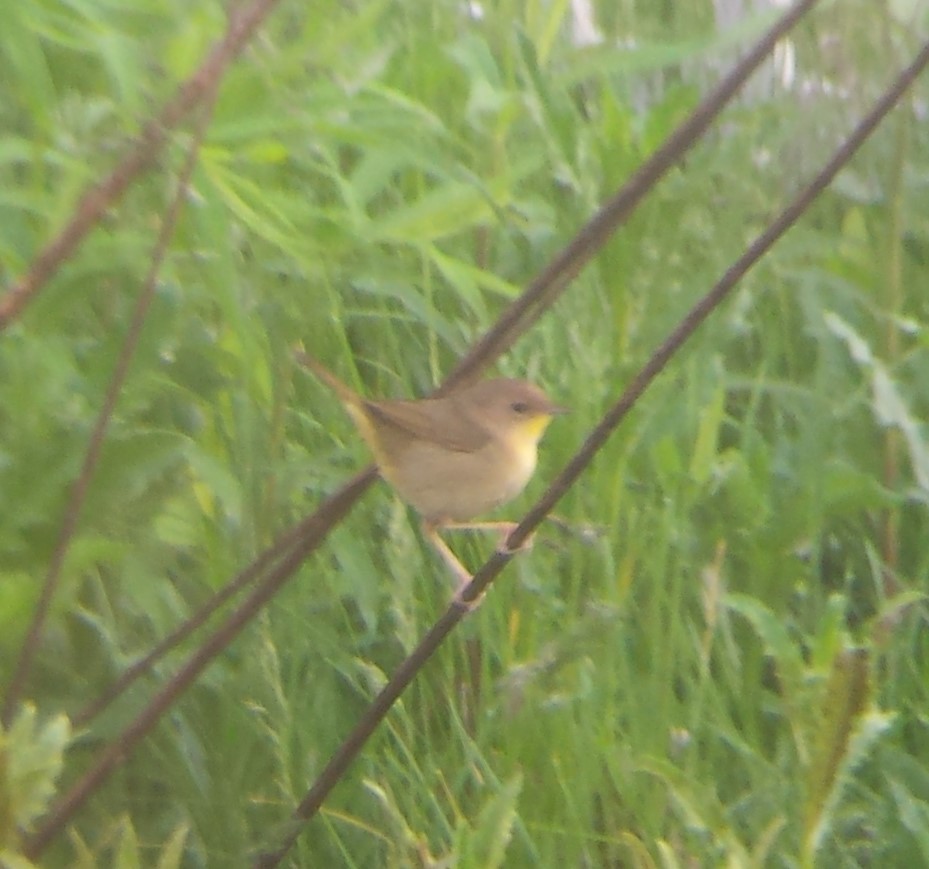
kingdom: Animalia
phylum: Chordata
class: Aves
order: Passeriformes
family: Parulidae
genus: Geothlypis
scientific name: Geothlypis trichas
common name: Common yellowthroat
